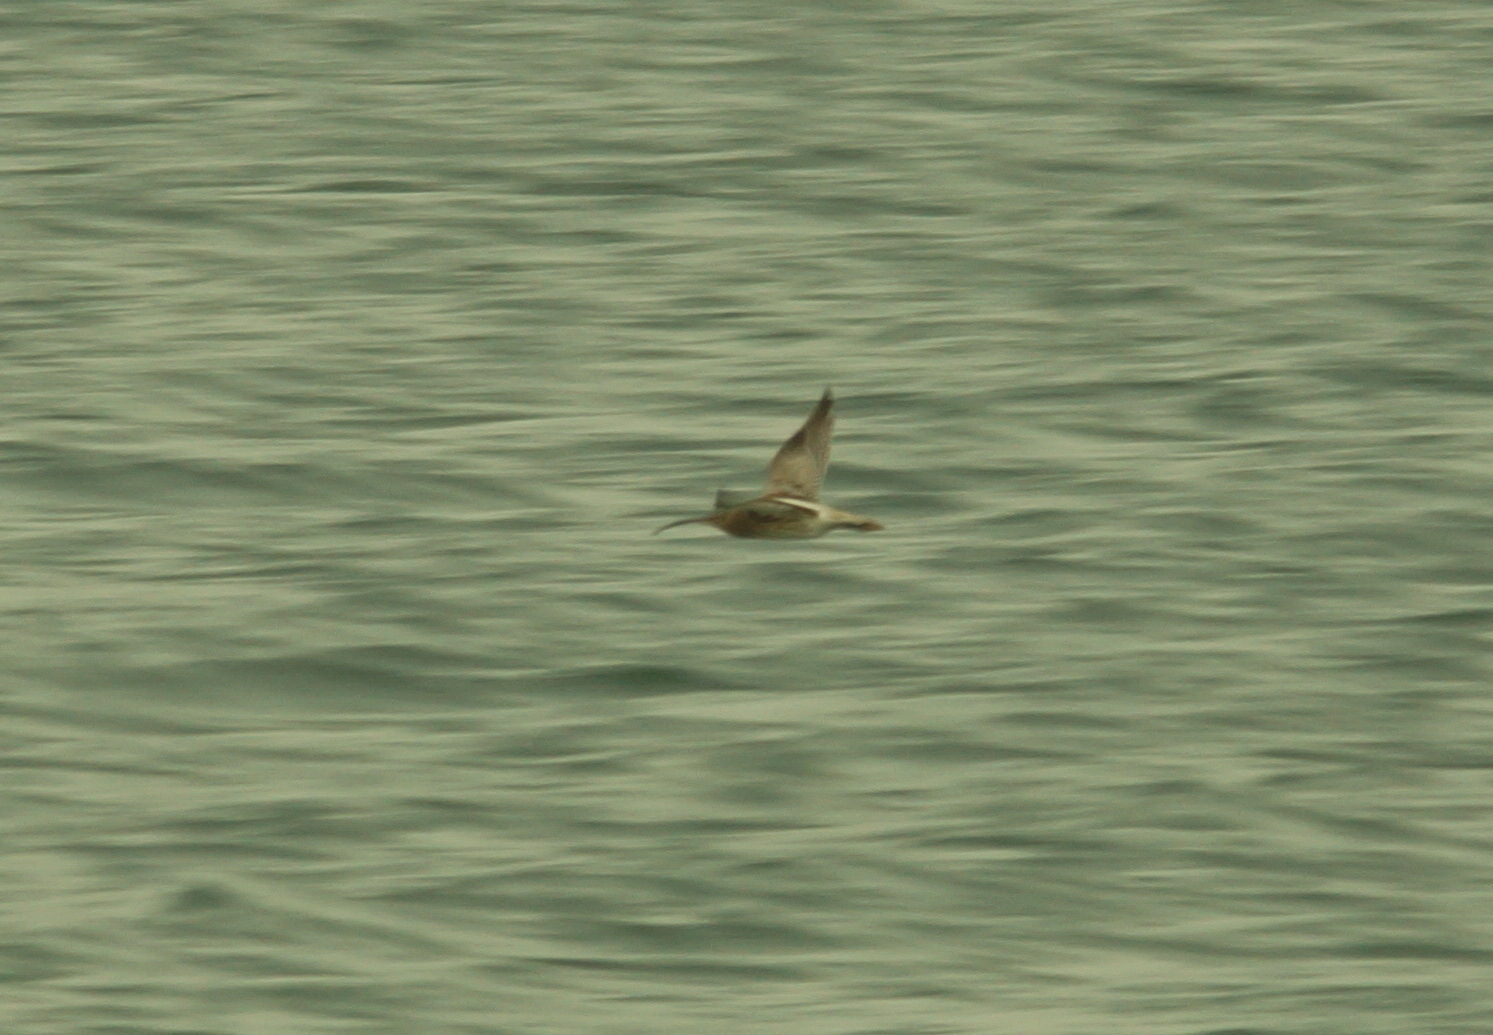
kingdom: Animalia
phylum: Chordata
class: Aves
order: Charadriiformes
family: Scolopacidae
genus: Numenius
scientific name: Numenius arquata
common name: Eurasian curlew
